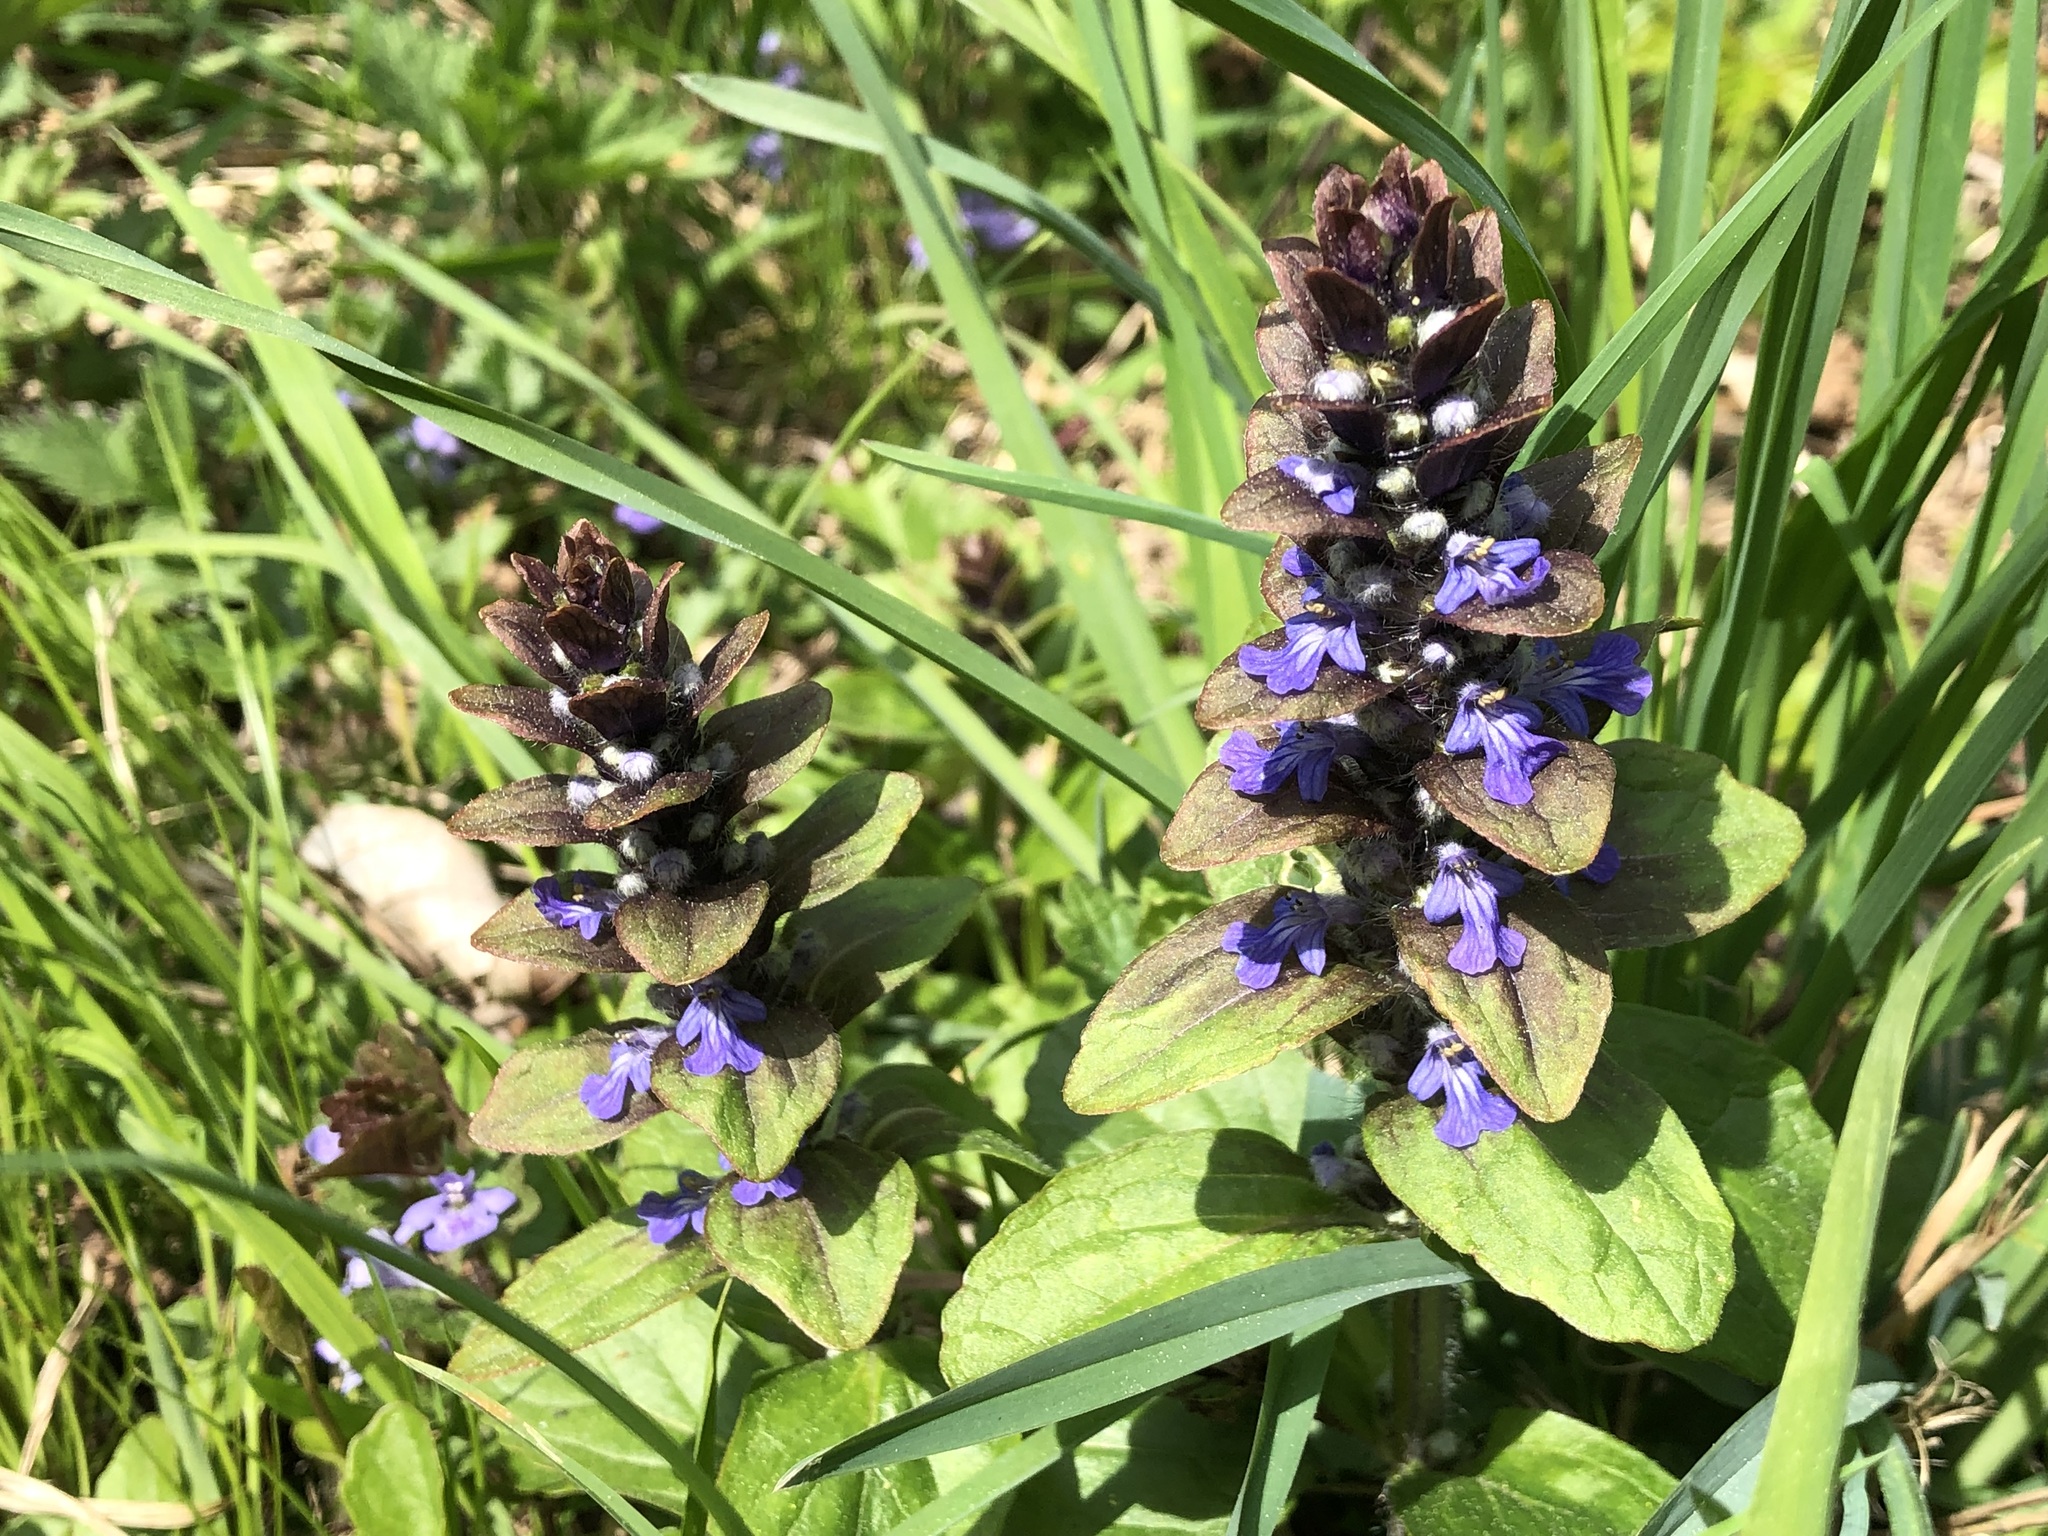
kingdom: Plantae
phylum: Tracheophyta
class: Magnoliopsida
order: Lamiales
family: Lamiaceae
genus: Ajuga
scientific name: Ajuga reptans
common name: Bugle
